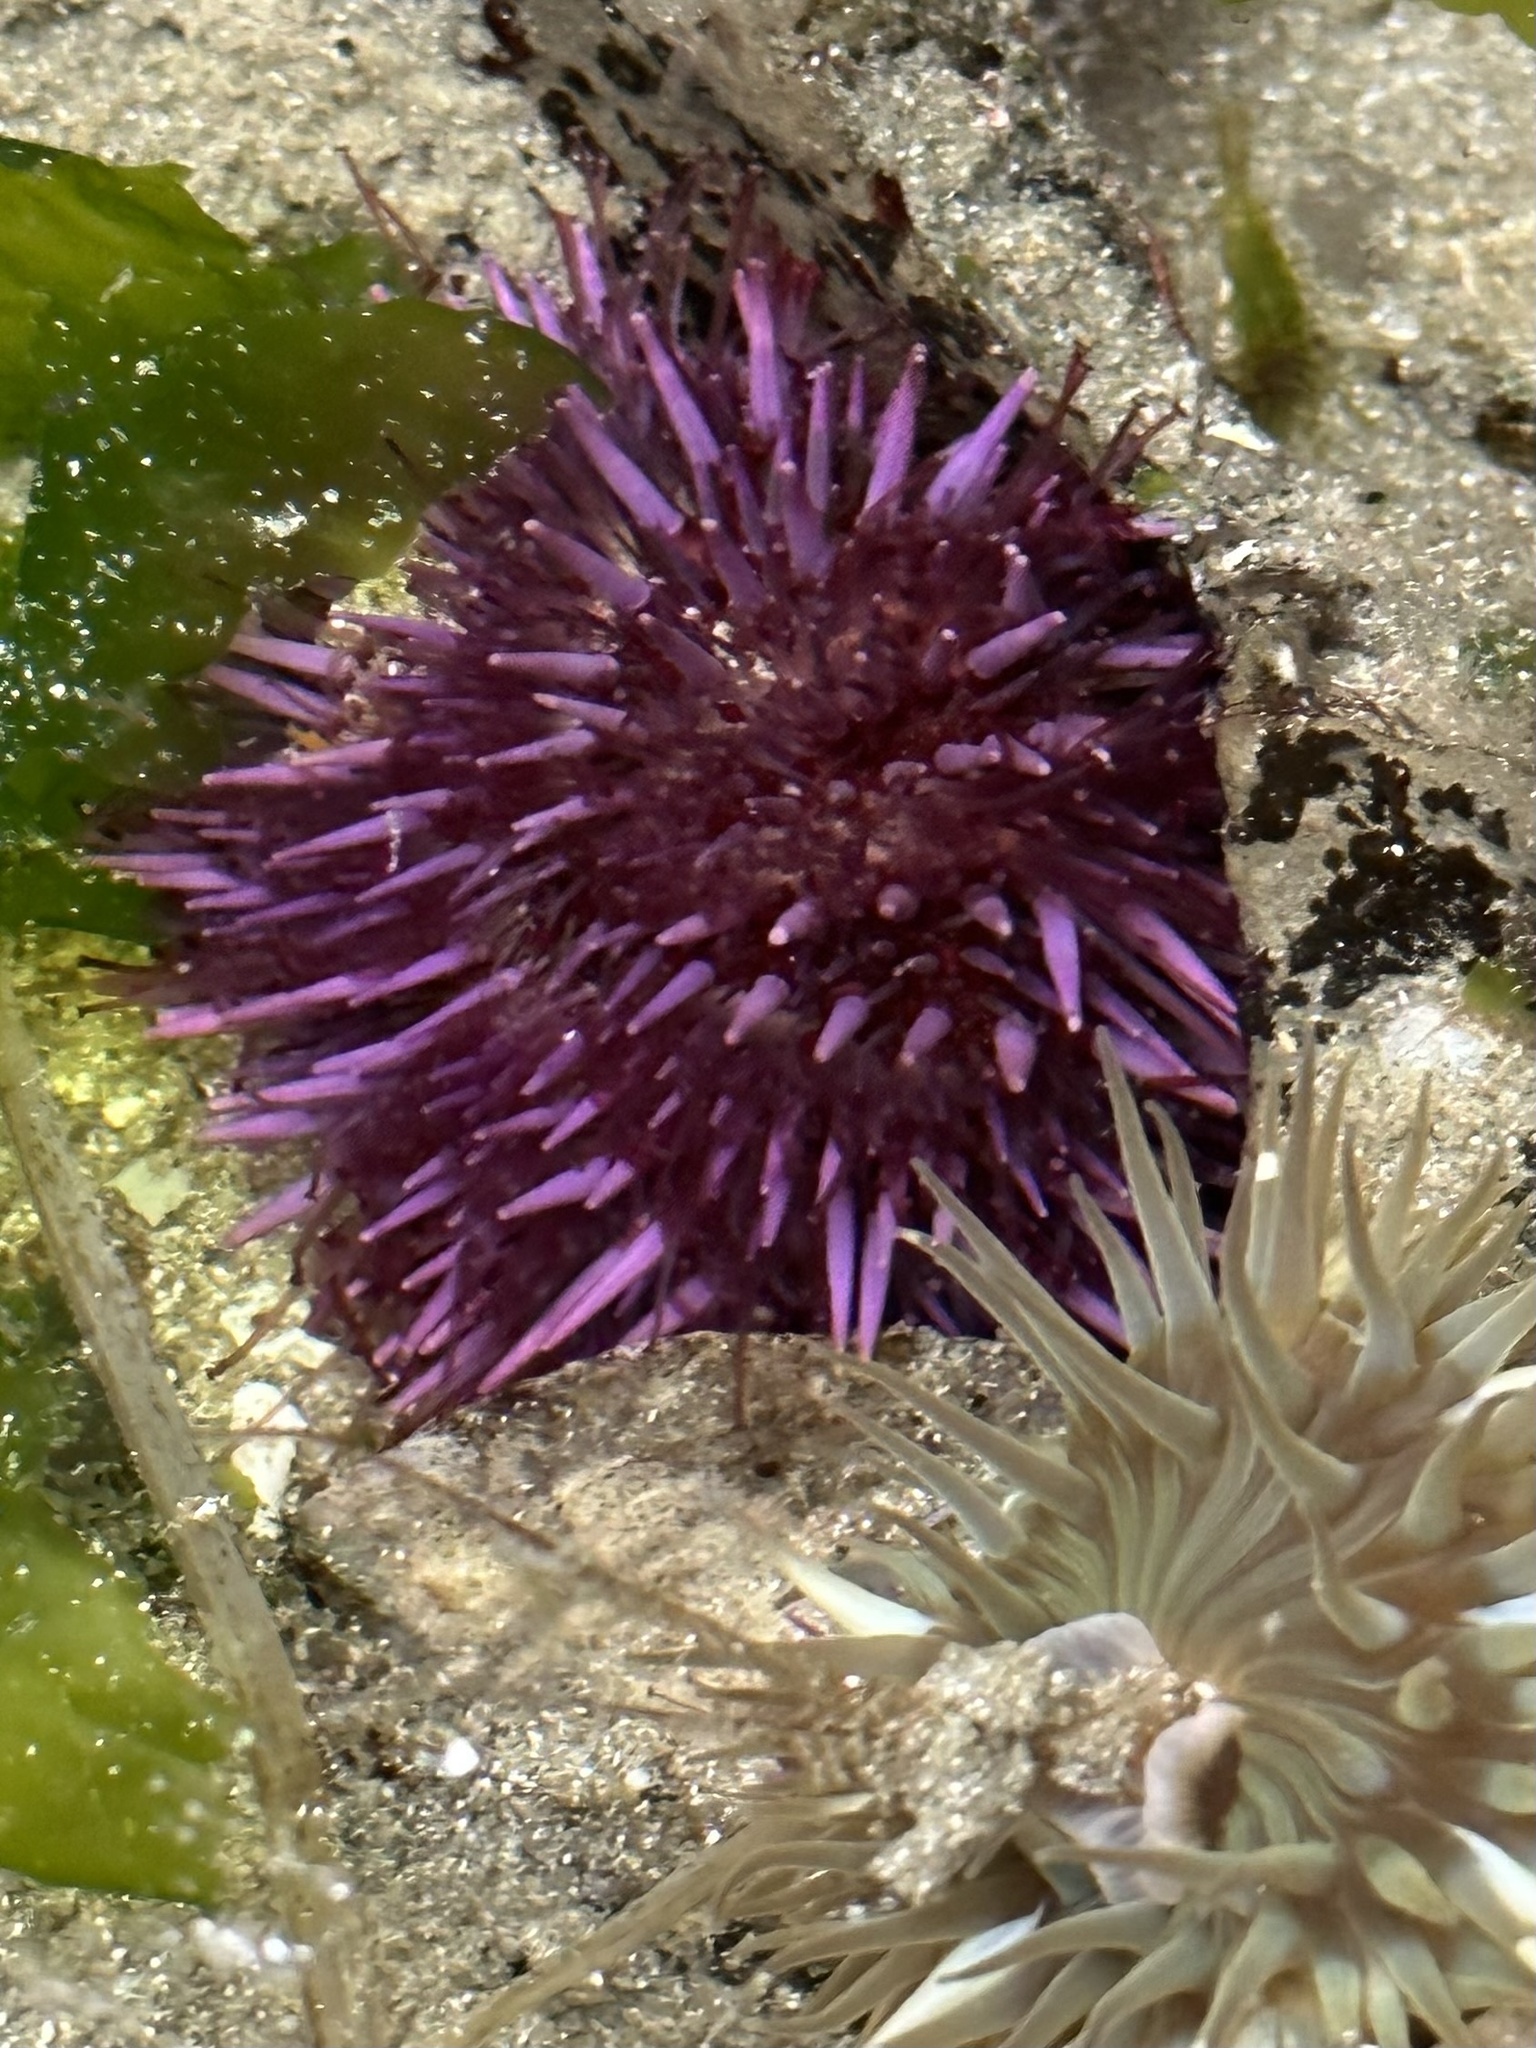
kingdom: Animalia
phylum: Echinodermata
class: Echinoidea
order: Camarodonta
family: Strongylocentrotidae
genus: Strongylocentrotus
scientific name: Strongylocentrotus purpuratus
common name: Purple sea urchin
